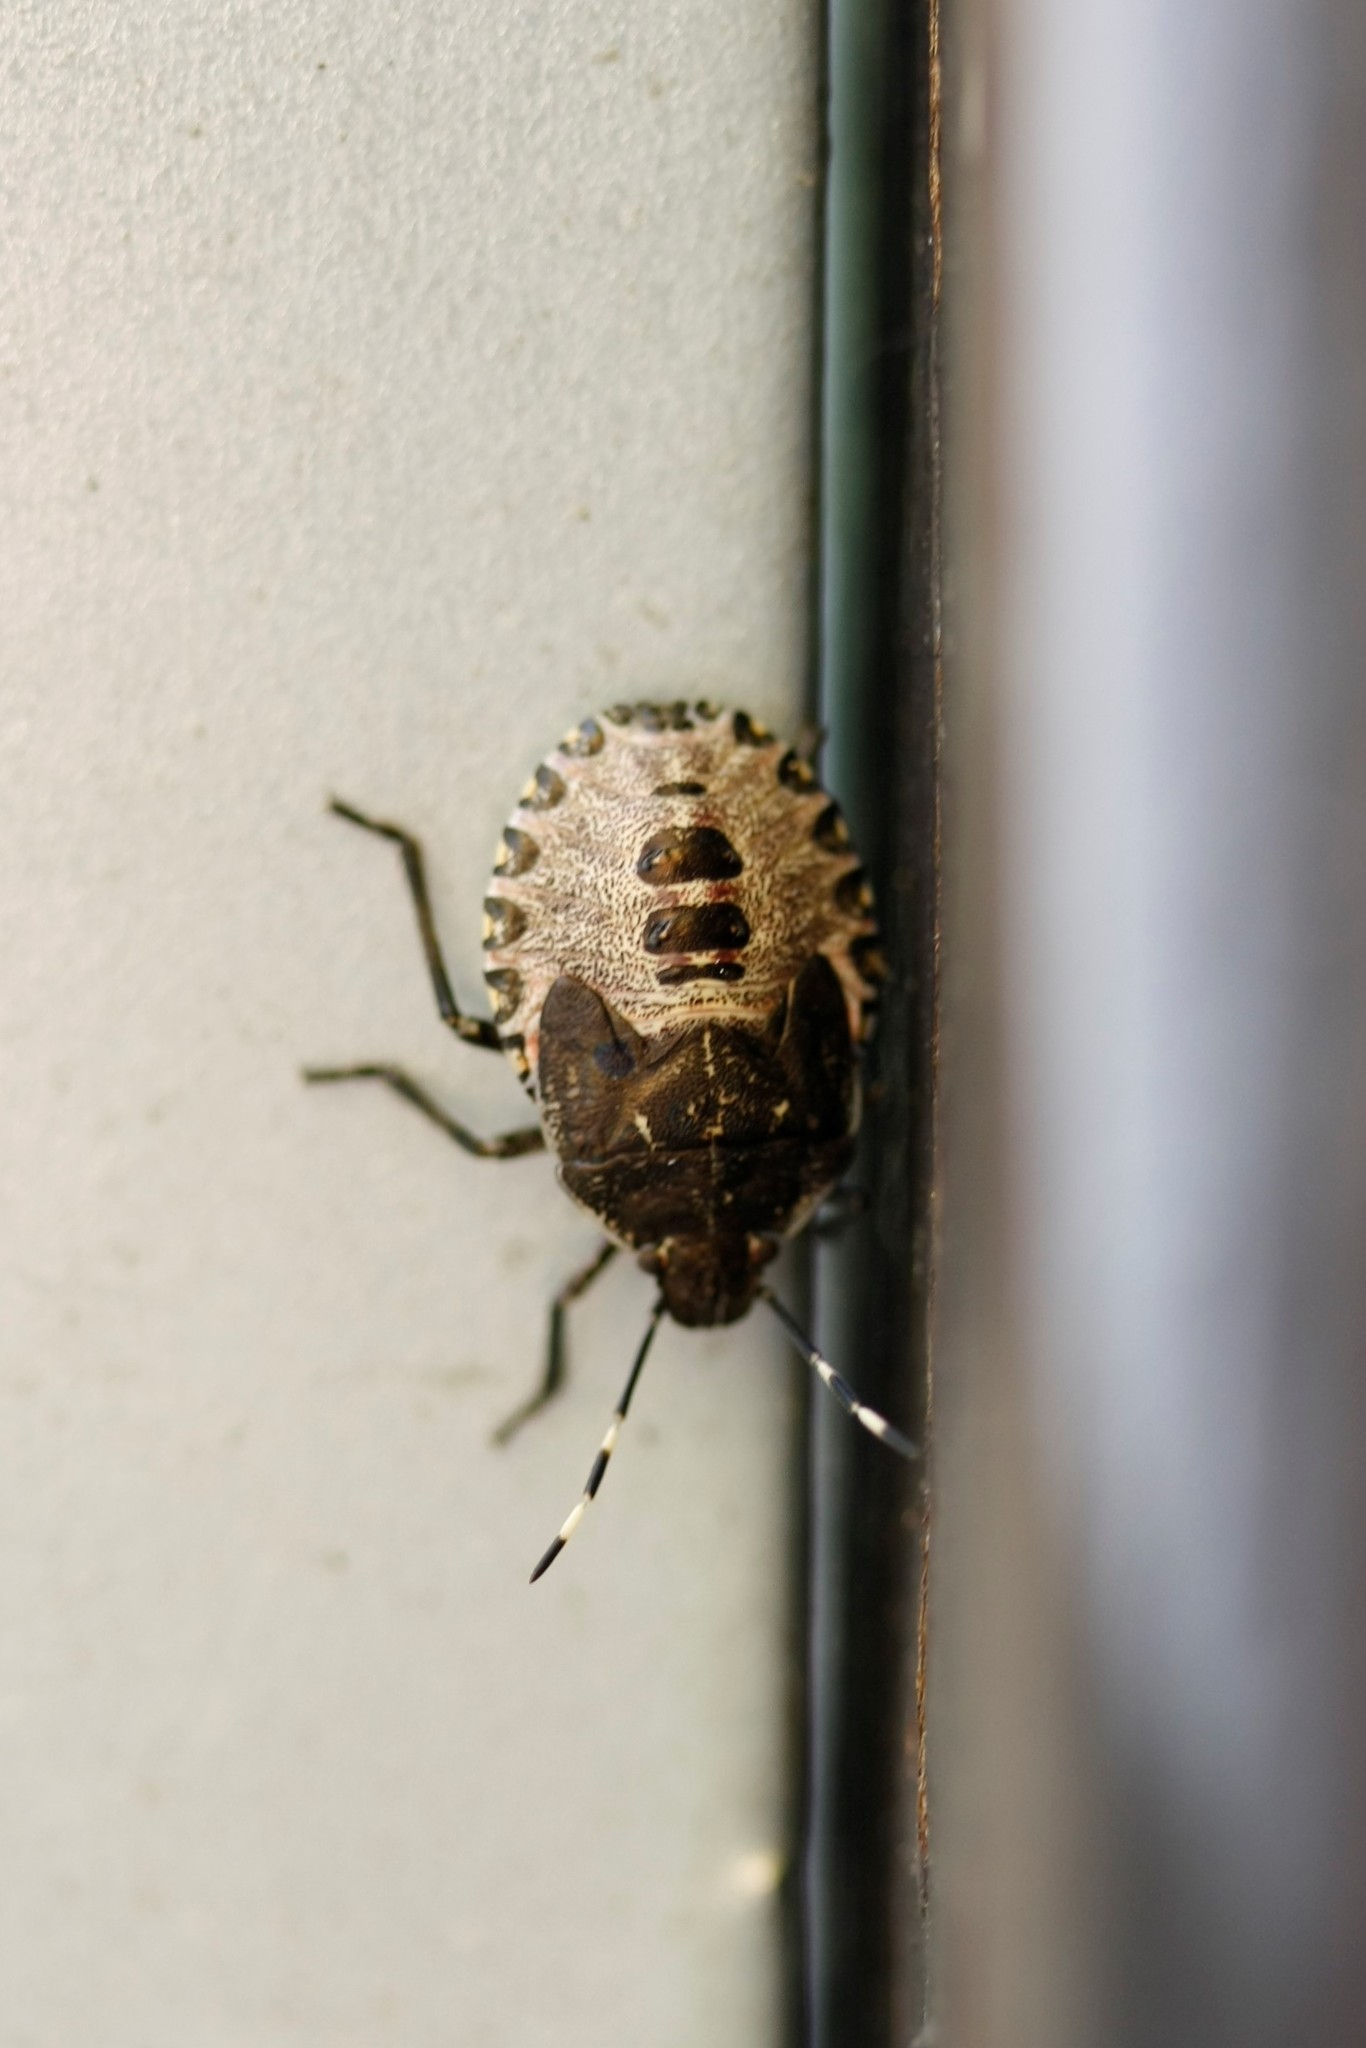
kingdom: Animalia
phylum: Arthropoda
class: Insecta
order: Hemiptera
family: Pentatomidae
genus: Rhaphigaster
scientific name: Rhaphigaster nebulosa
